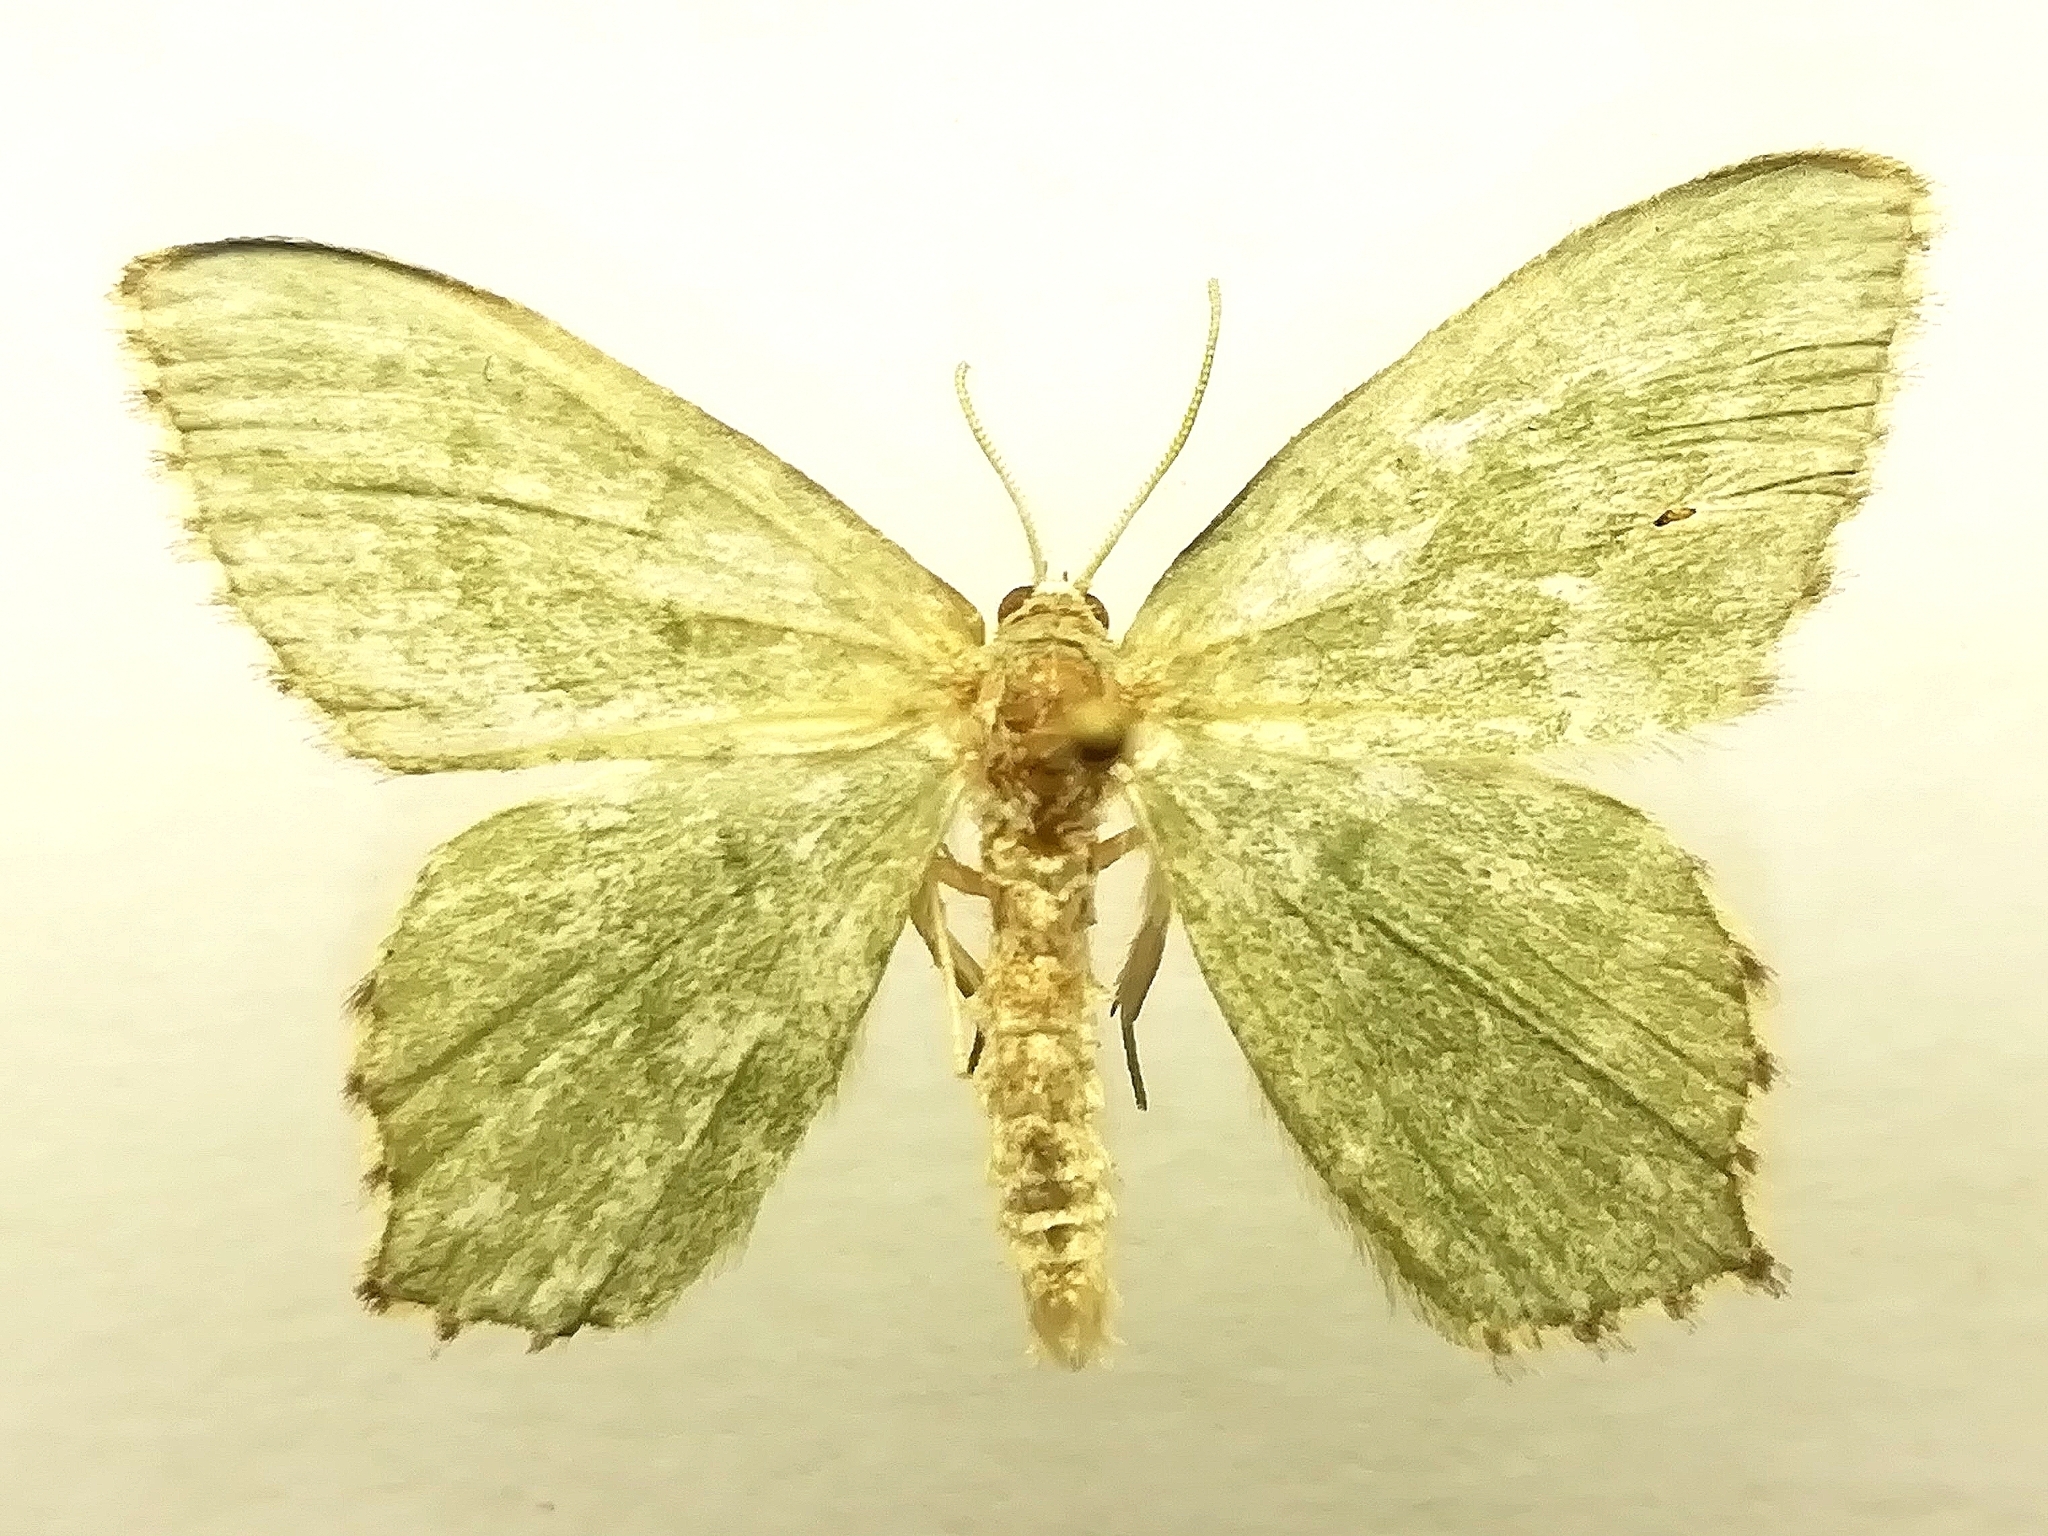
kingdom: Animalia
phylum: Arthropoda
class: Insecta
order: Lepidoptera
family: Geometridae
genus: Hemithea
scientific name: Hemithea aestivaria
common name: Common emerald
